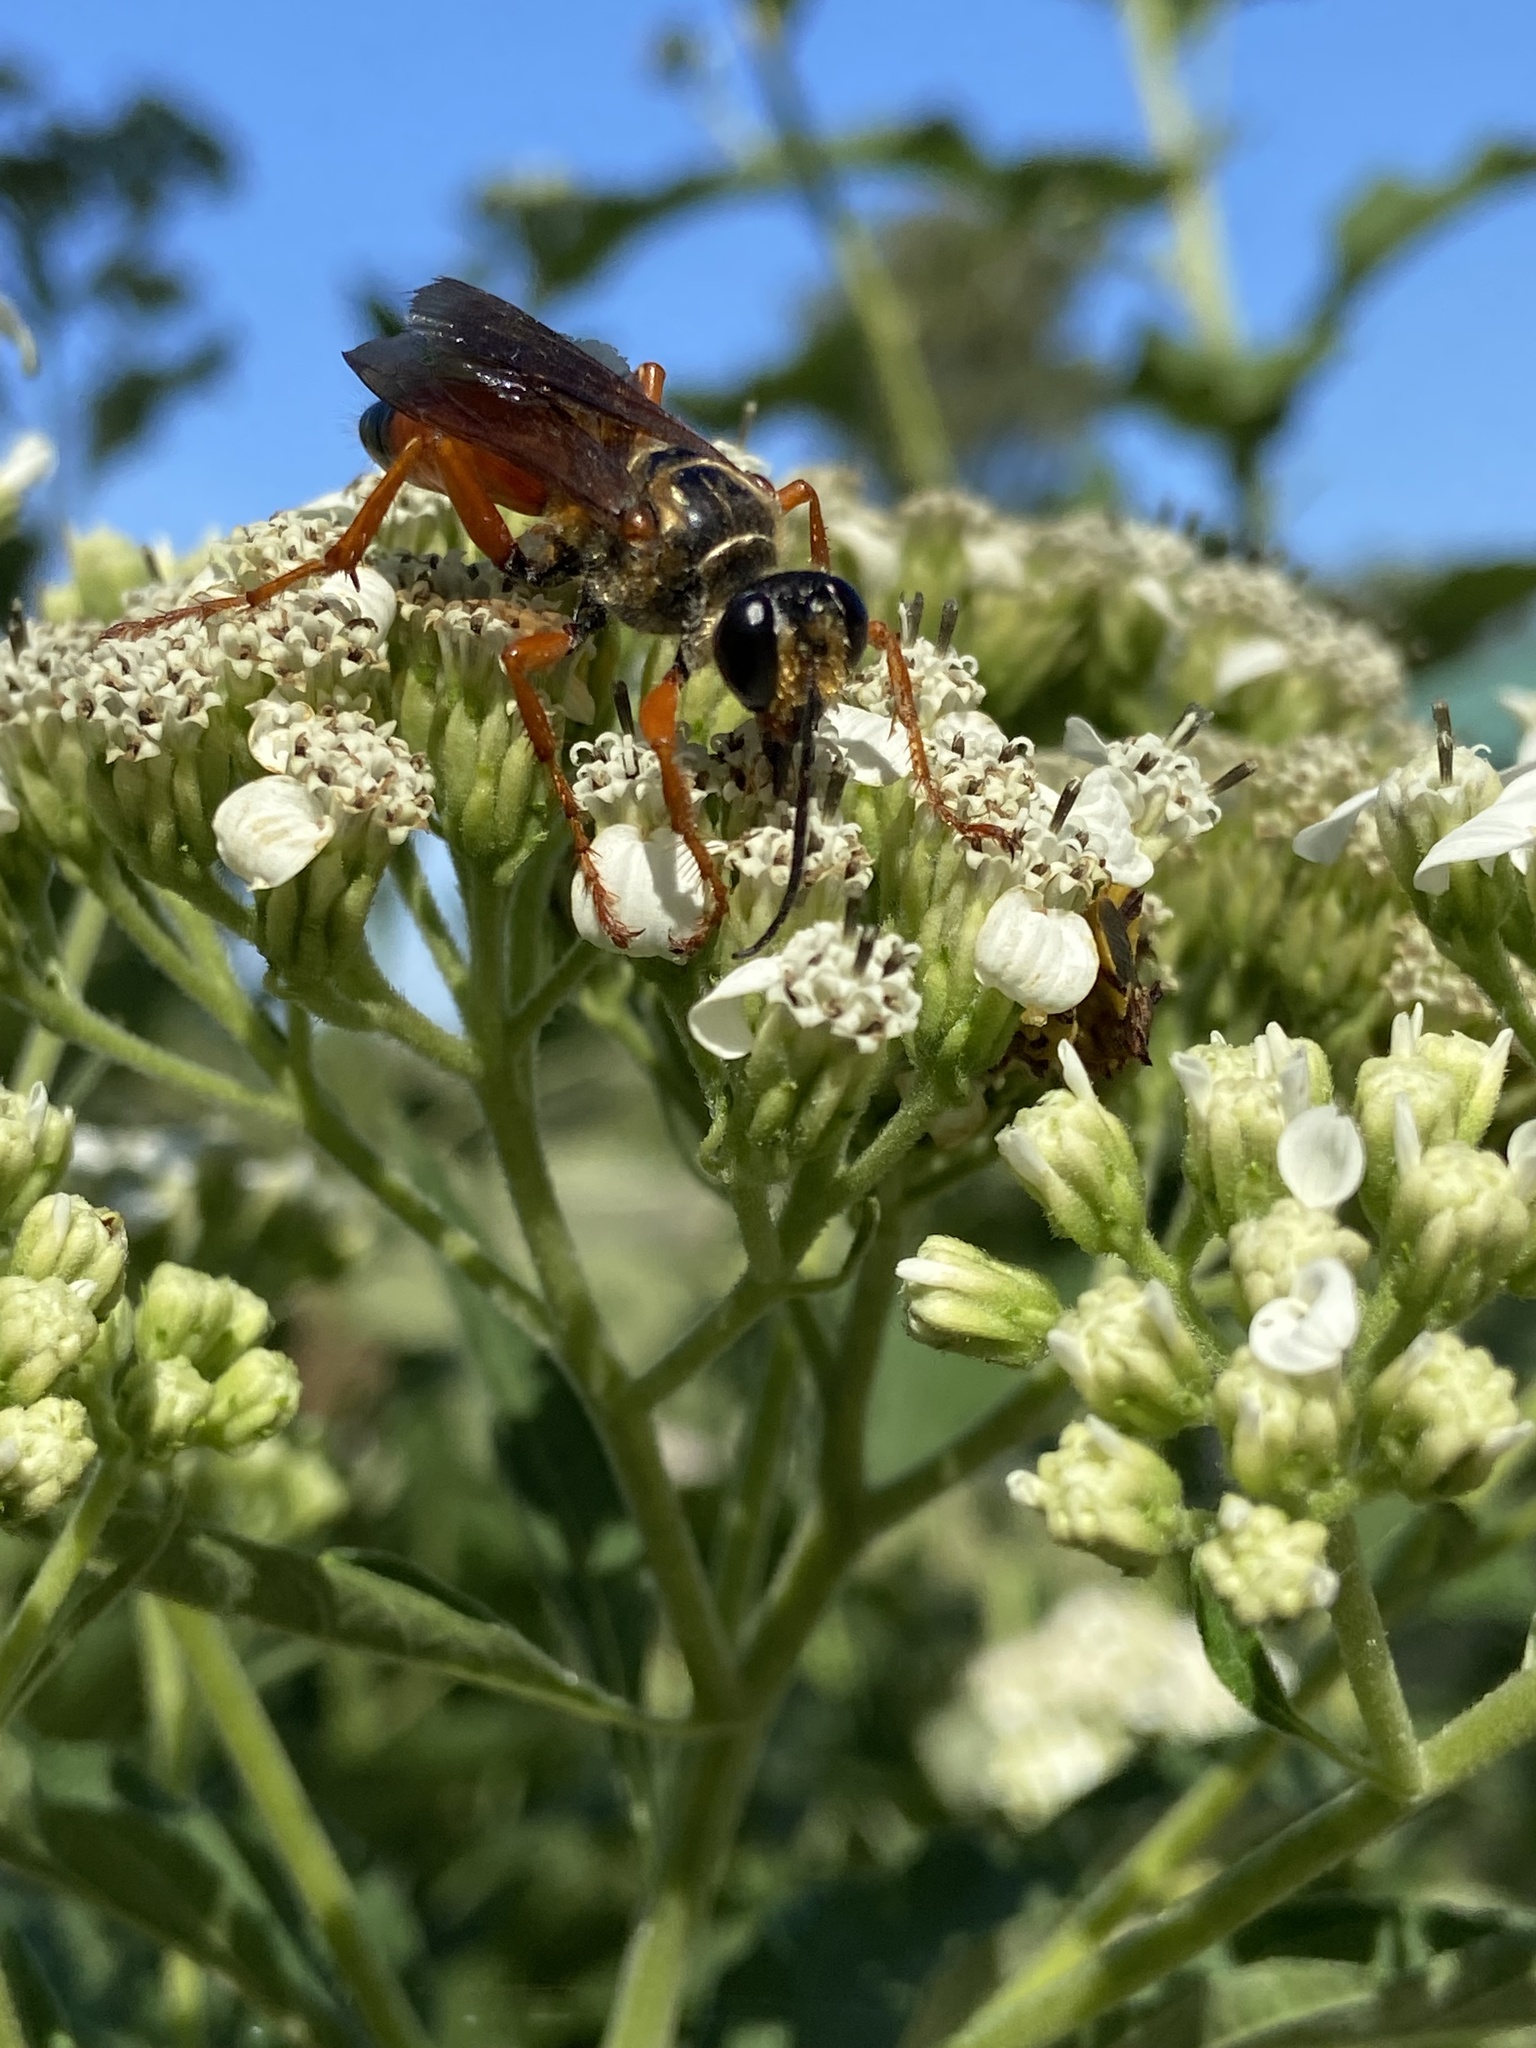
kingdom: Animalia
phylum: Arthropoda
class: Insecta
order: Hymenoptera
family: Sphecidae
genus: Sphex
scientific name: Sphex ichneumoneus
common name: Great golden digger wasp
